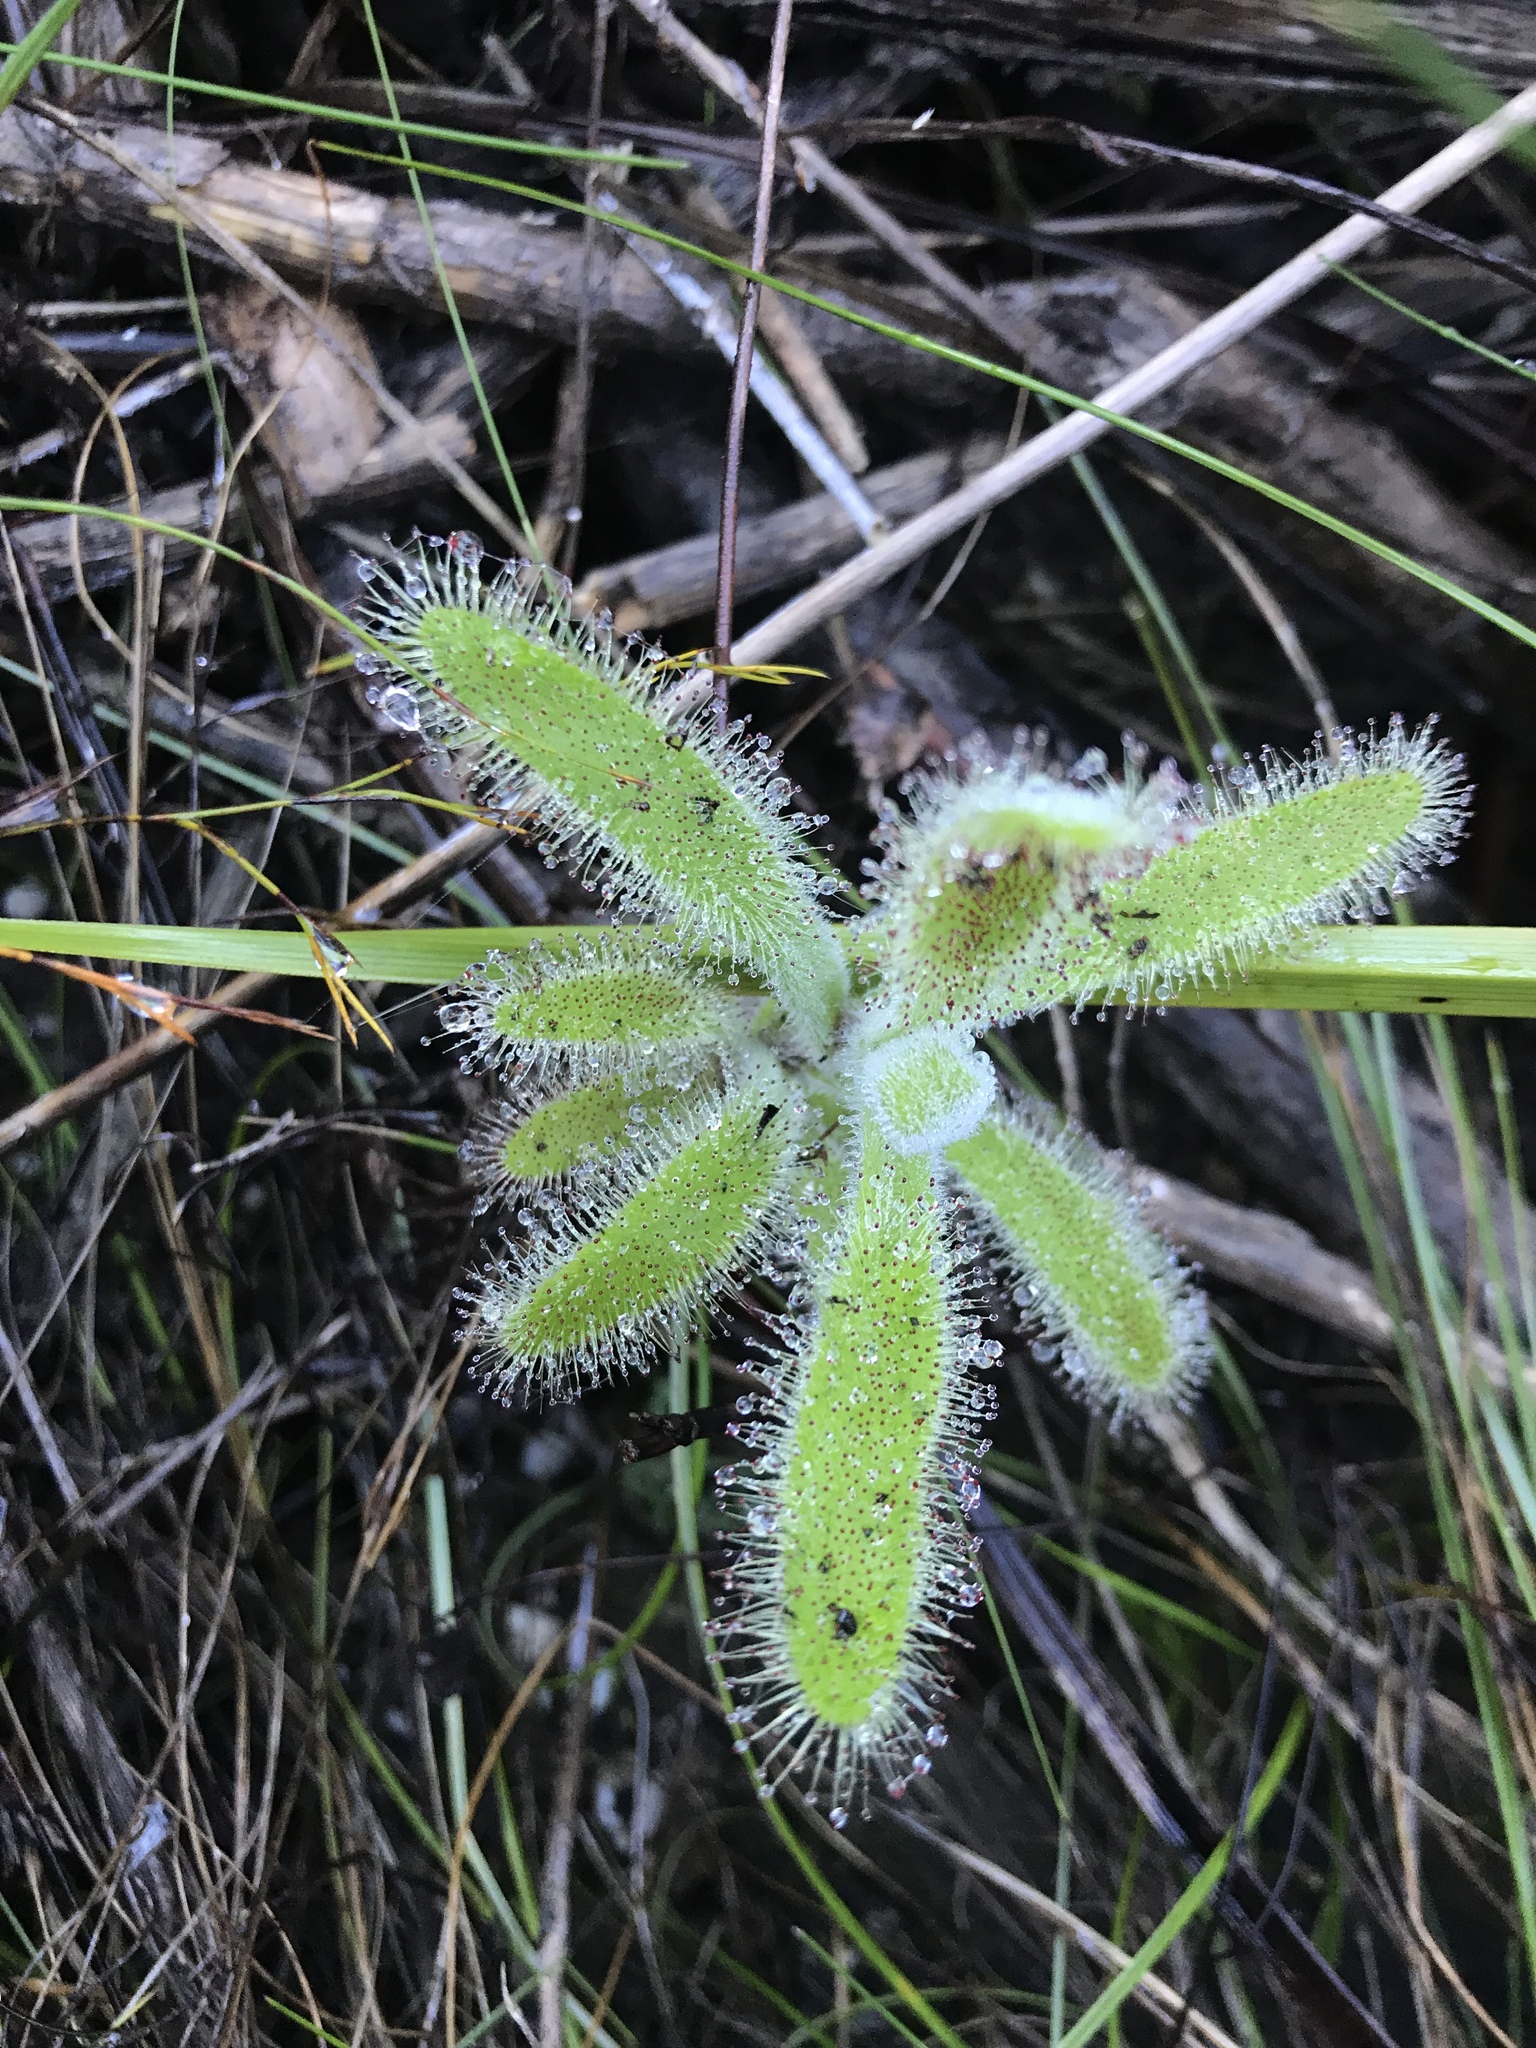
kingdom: Plantae
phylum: Tracheophyta
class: Magnoliopsida
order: Caryophyllales
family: Droseraceae
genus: Drosera
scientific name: Drosera hilaris
